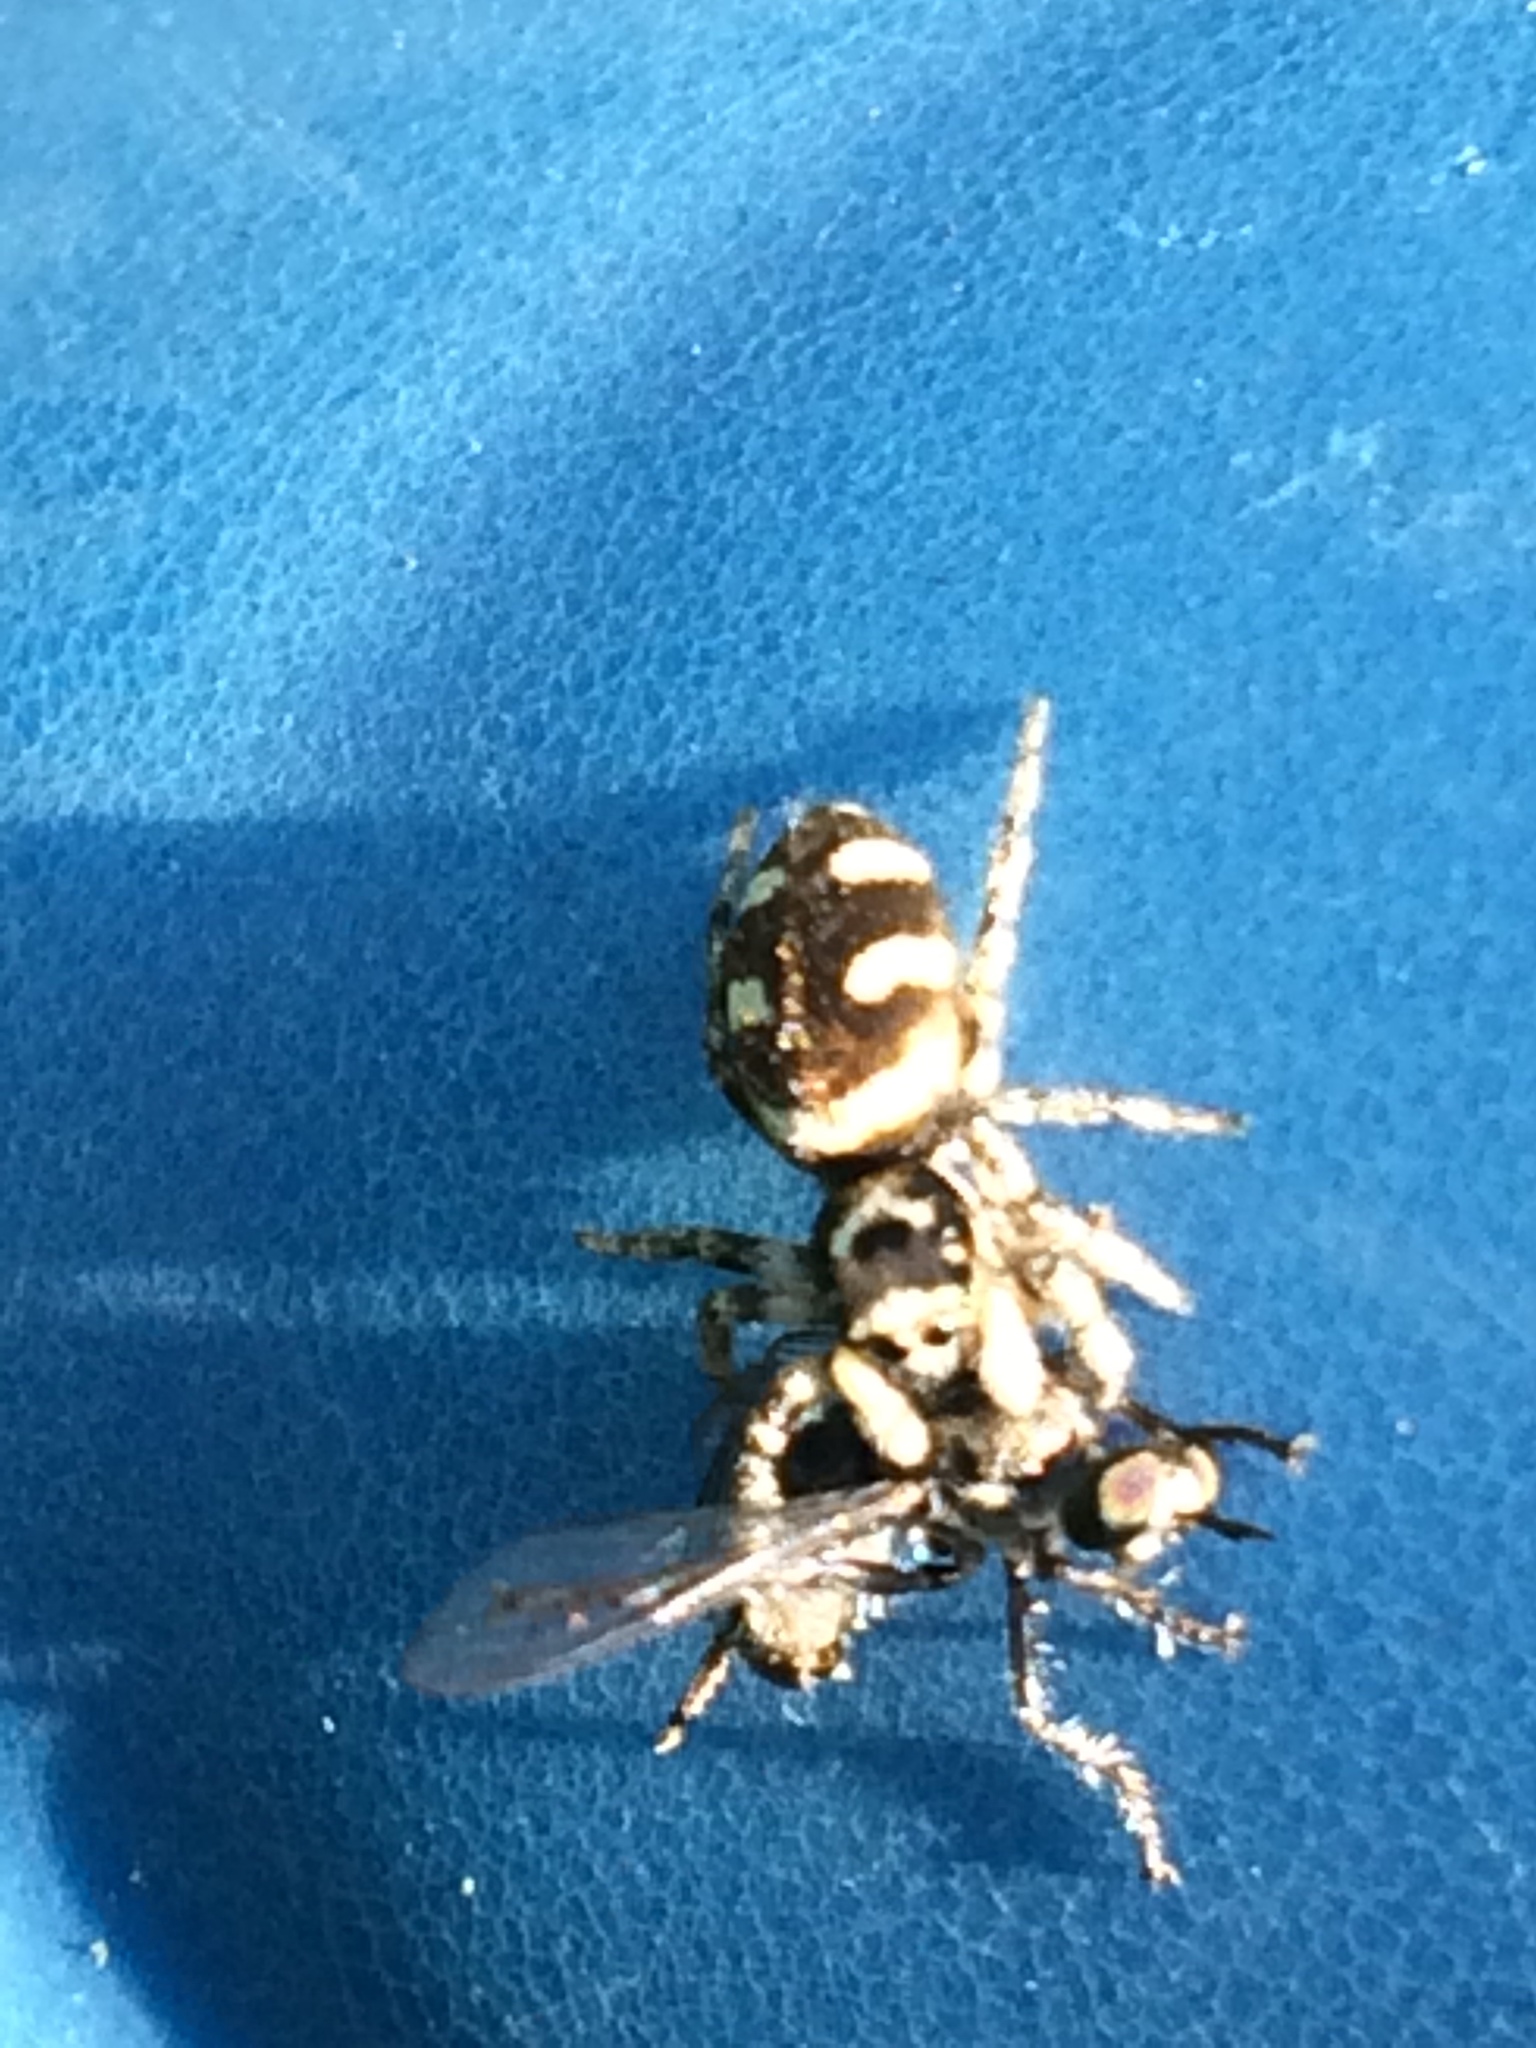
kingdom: Animalia
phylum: Arthropoda
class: Arachnida
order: Araneae
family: Salticidae
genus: Salticus
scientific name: Salticus scenicus
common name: Zebra jumper
